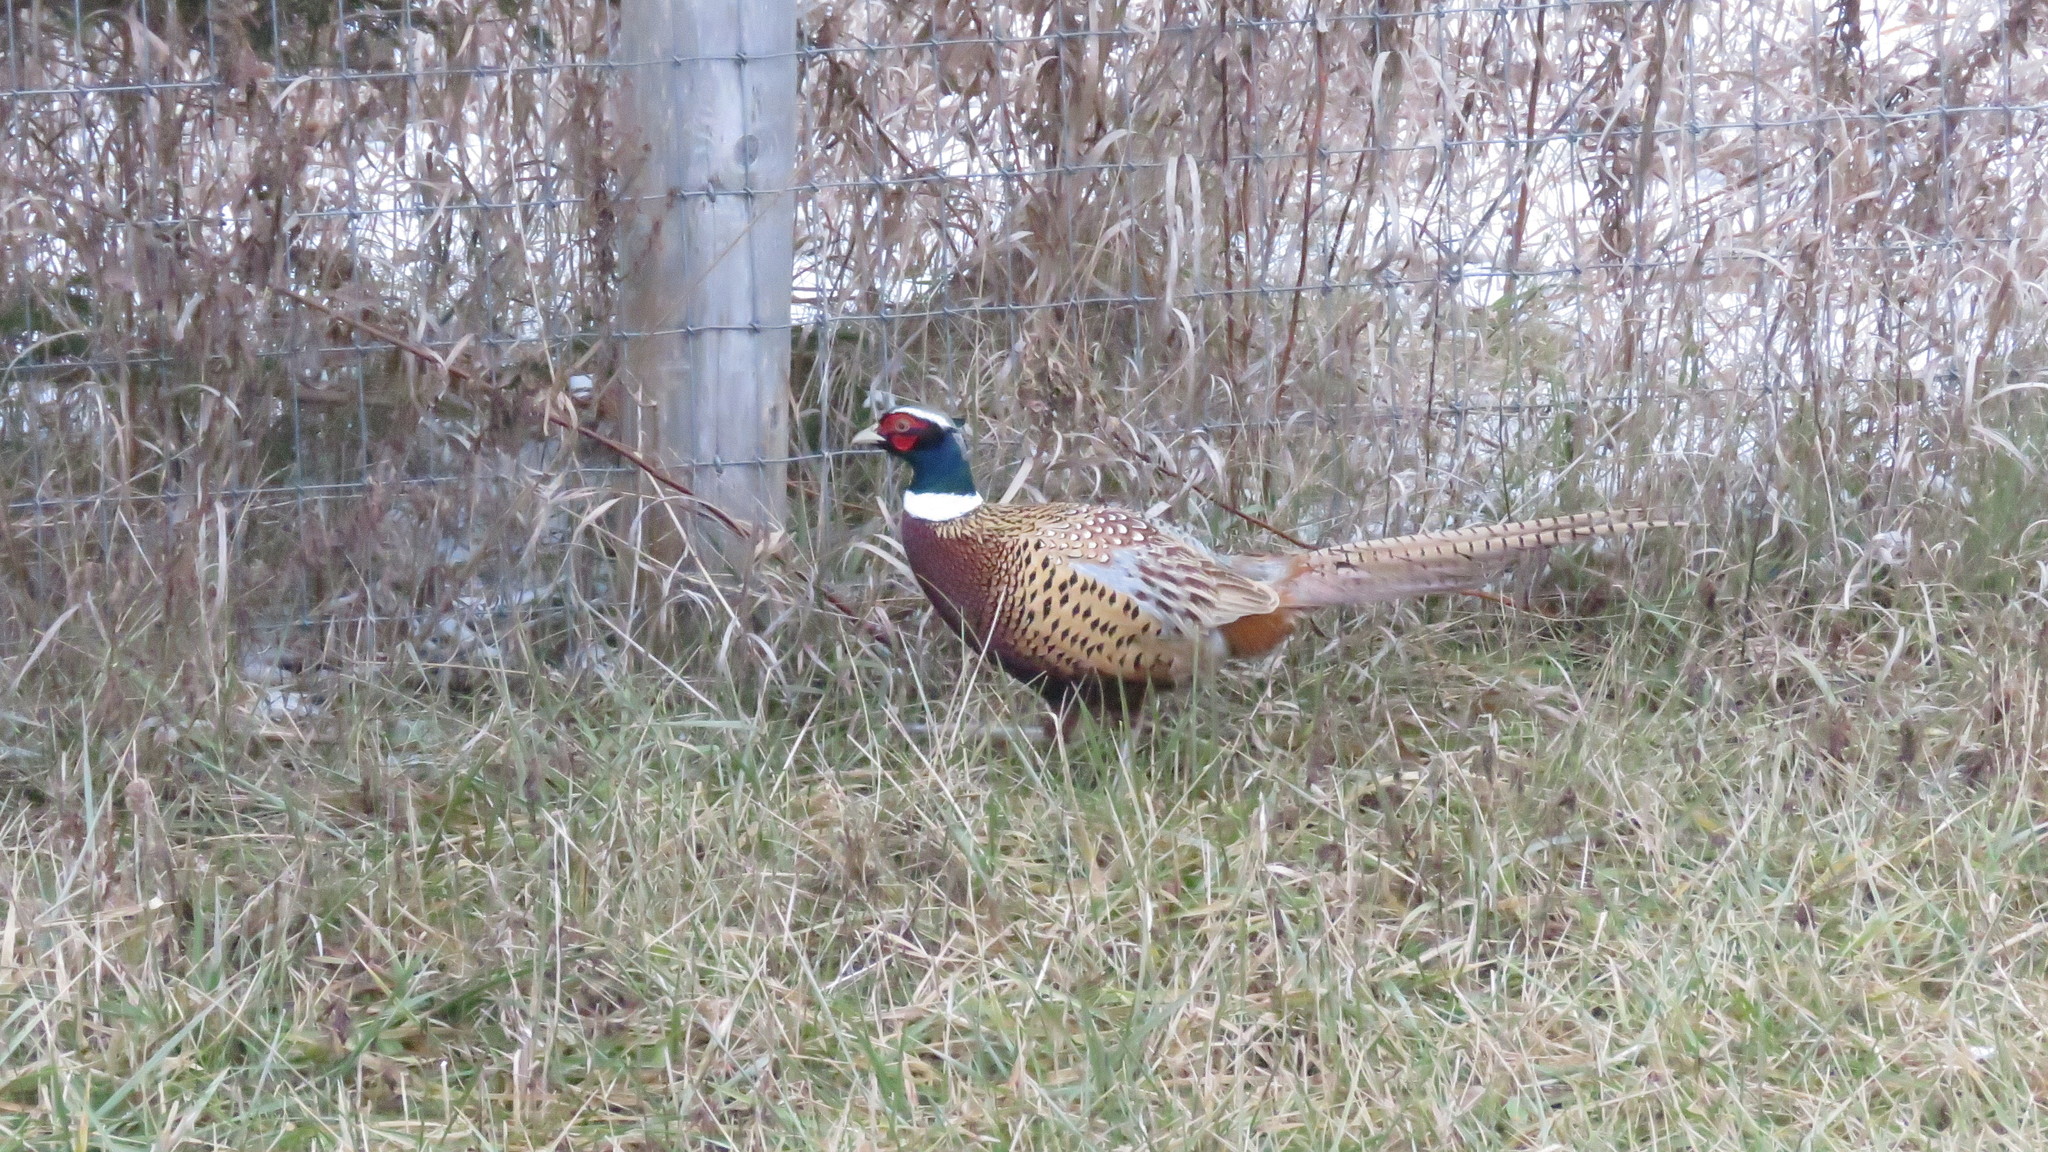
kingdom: Animalia
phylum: Chordata
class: Aves
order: Galliformes
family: Phasianidae
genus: Phasianus
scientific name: Phasianus colchicus
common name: Common pheasant
